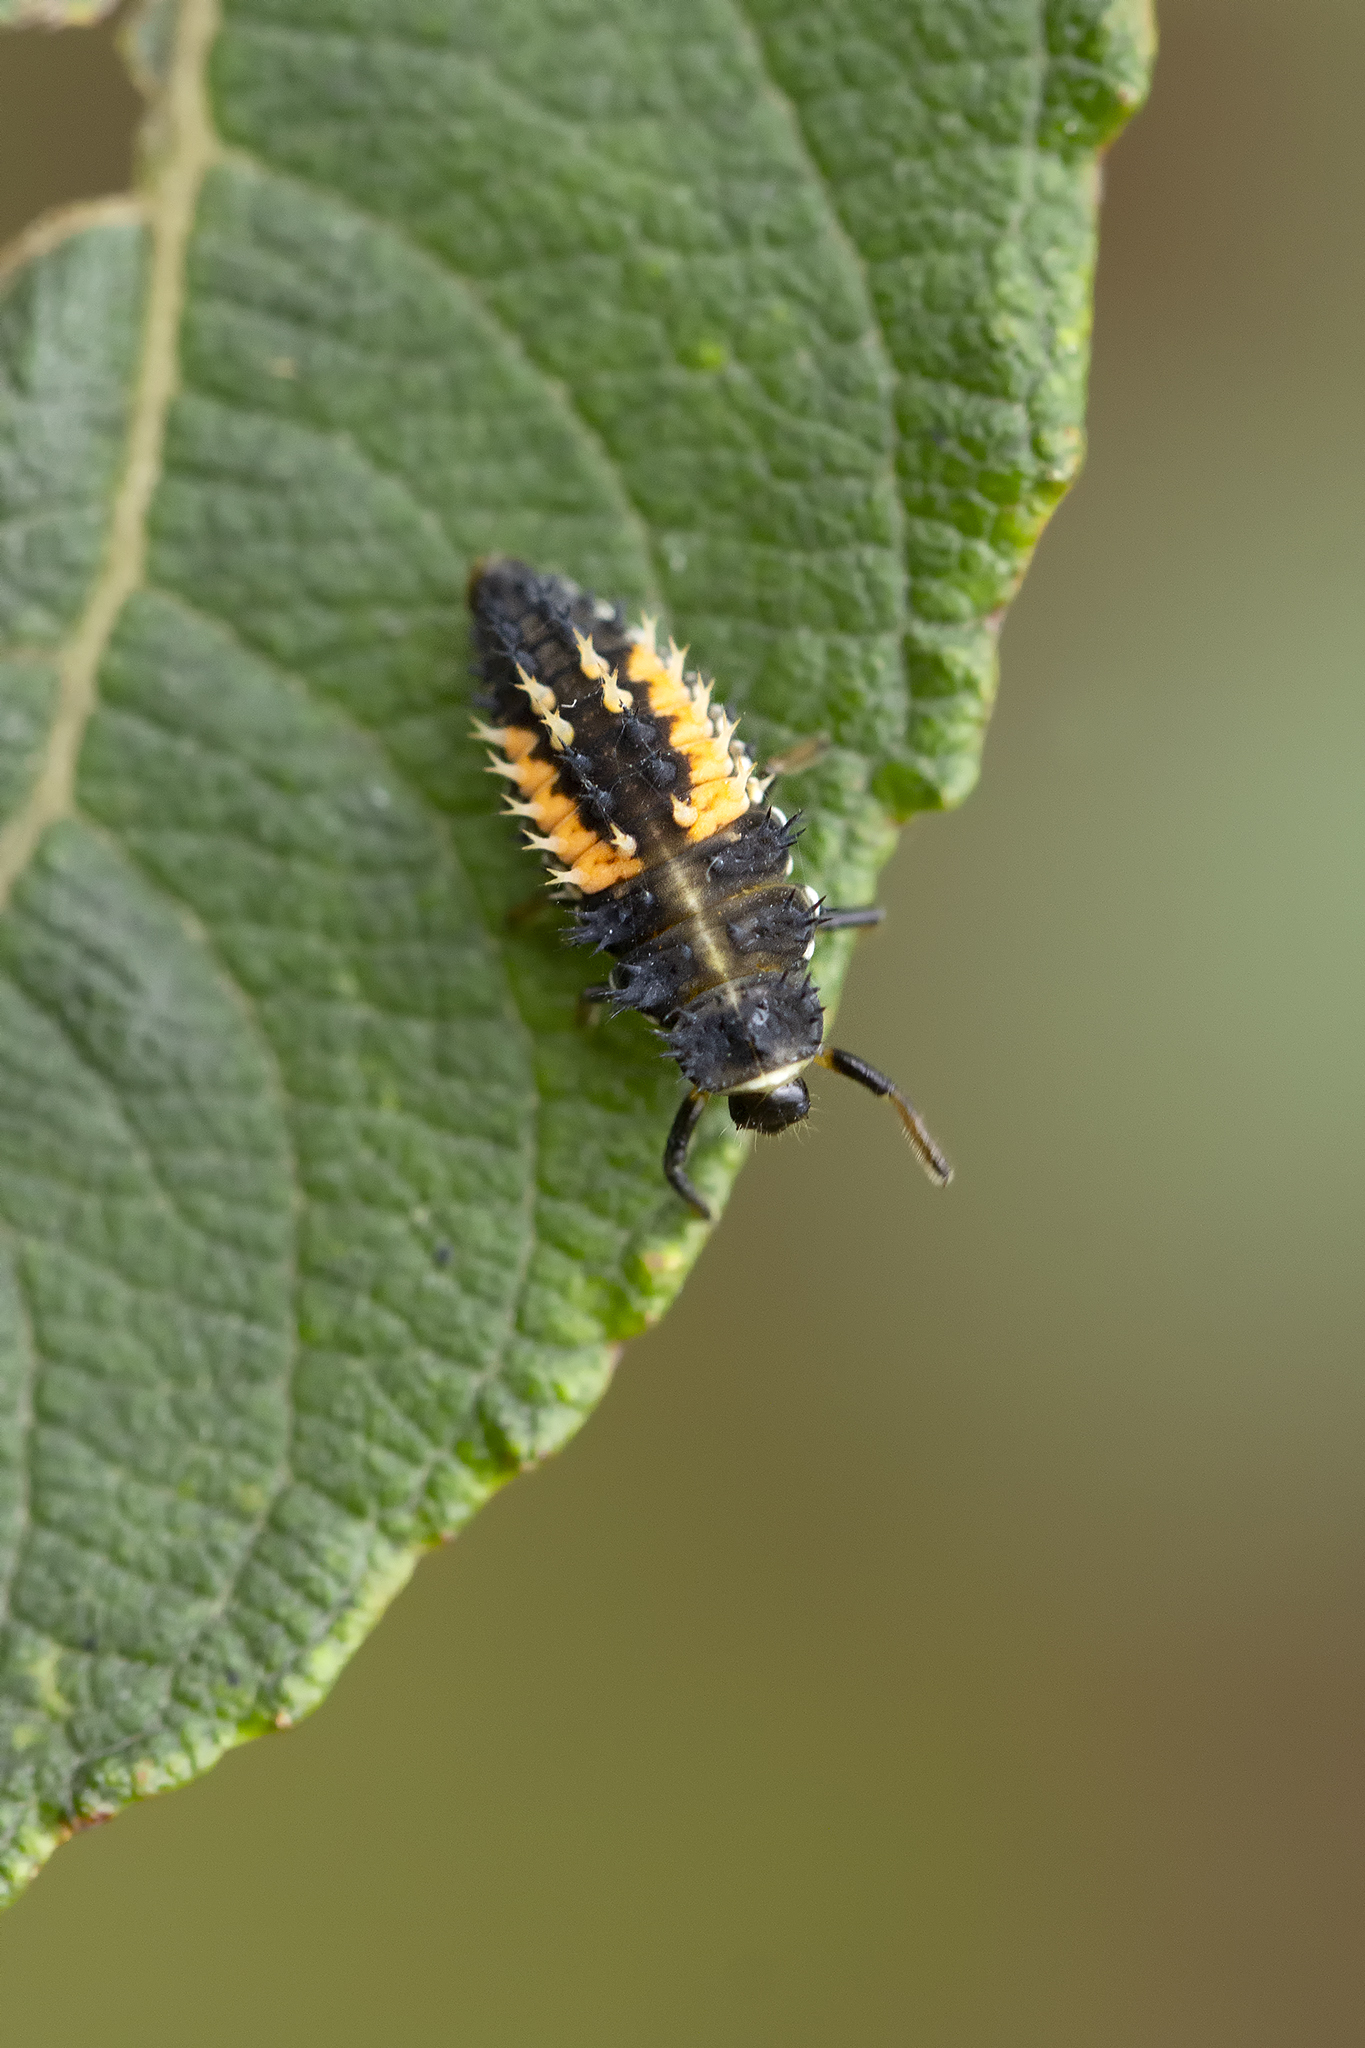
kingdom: Animalia
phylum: Arthropoda
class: Insecta
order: Coleoptera
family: Coccinellidae
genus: Harmonia
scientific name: Harmonia axyridis
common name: Harlequin ladybird
